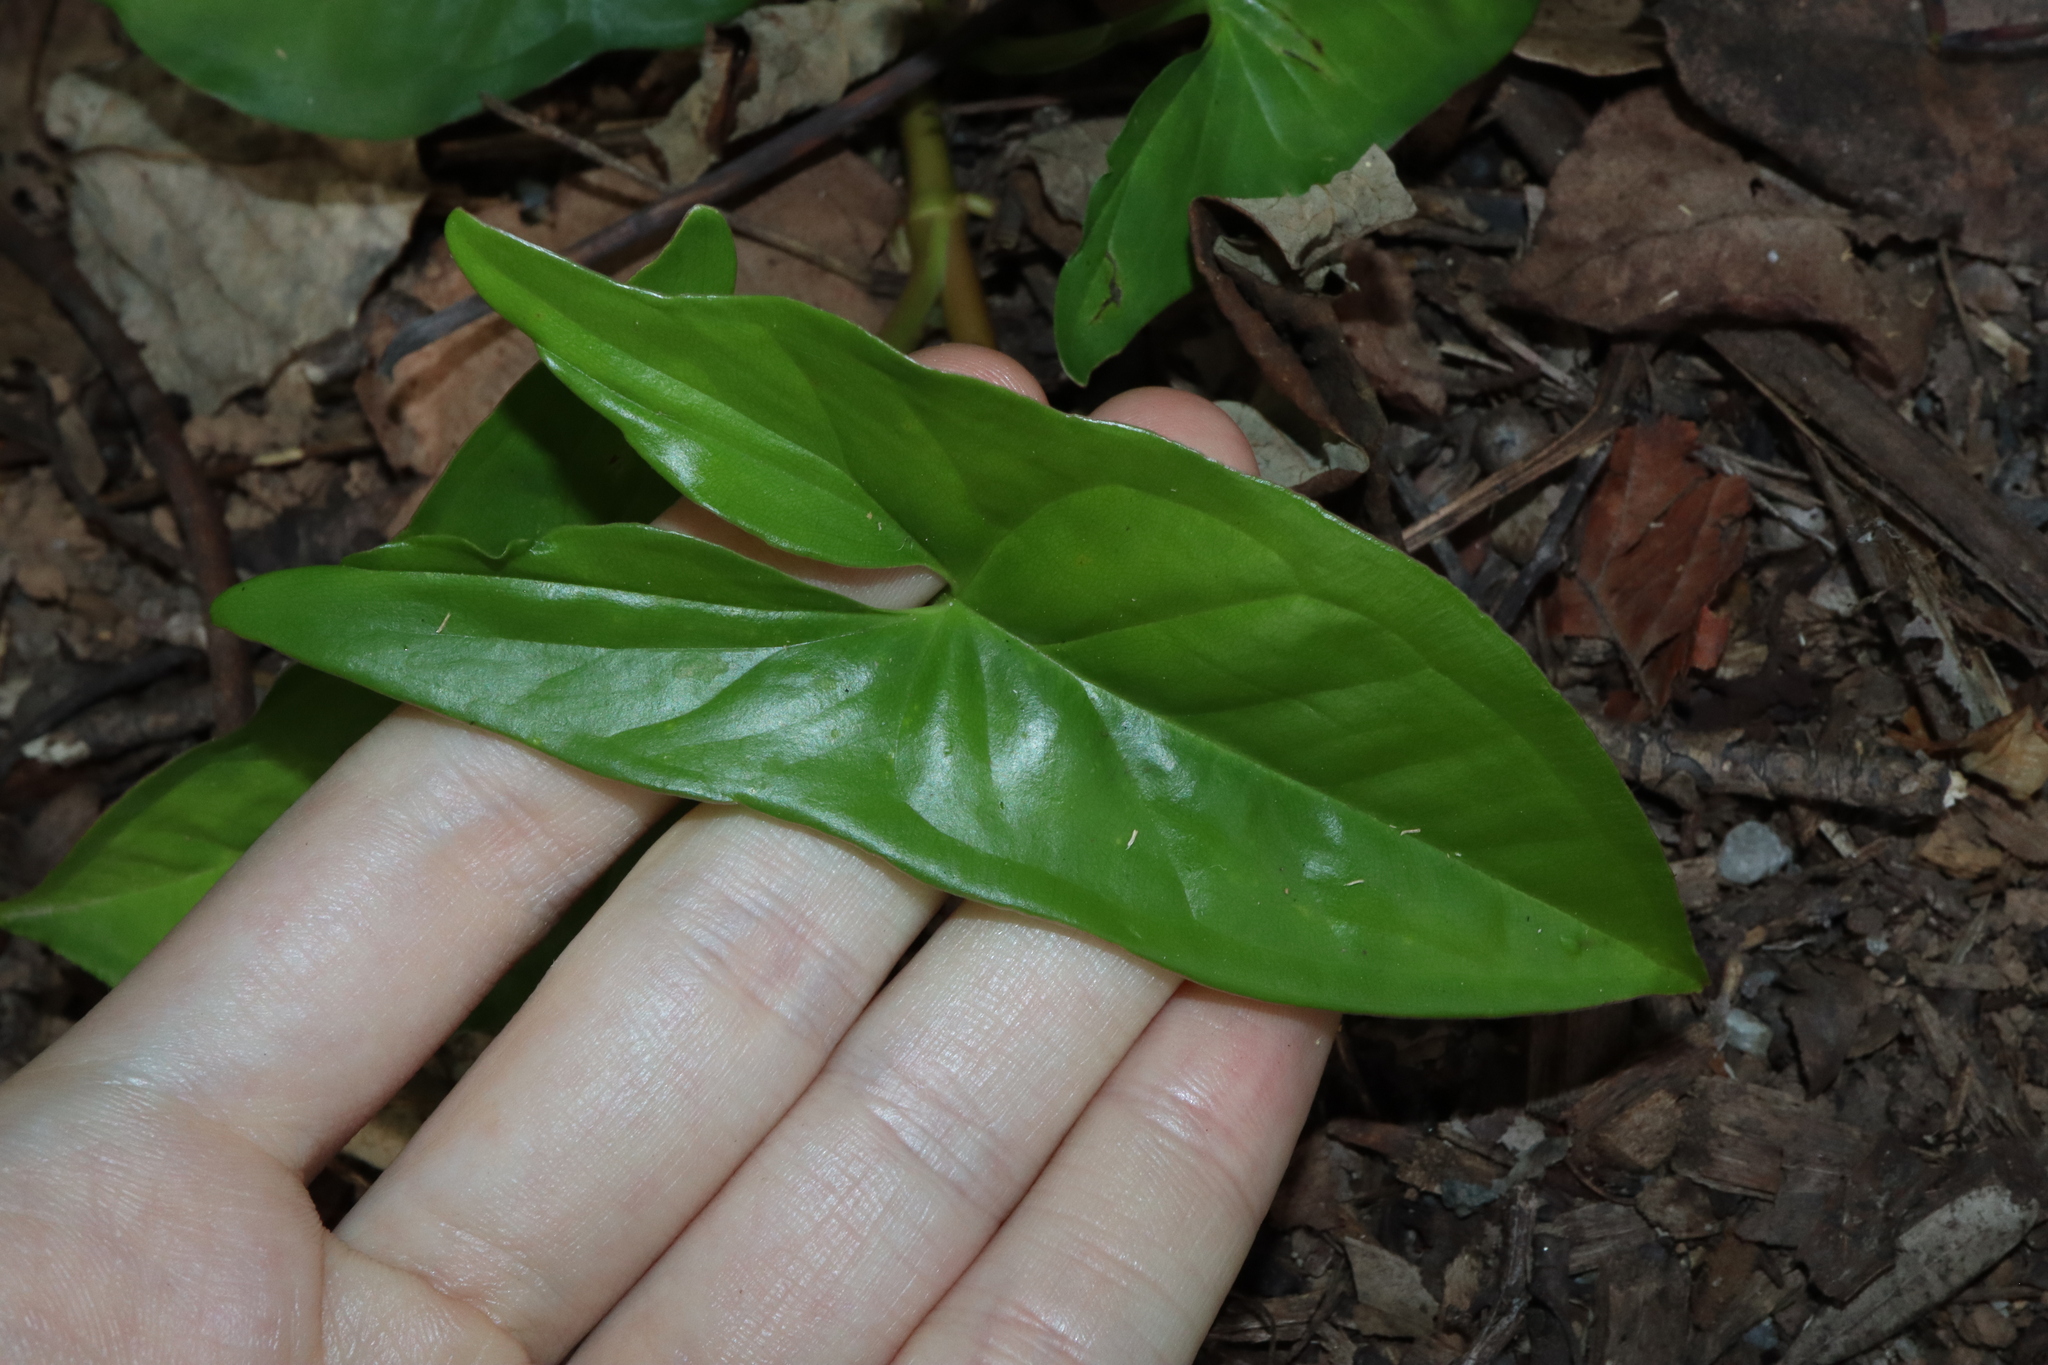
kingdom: Plantae
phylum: Tracheophyta
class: Liliopsida
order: Alismatales
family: Araceae
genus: Syngonium
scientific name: Syngonium podophyllum
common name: American evergreen
